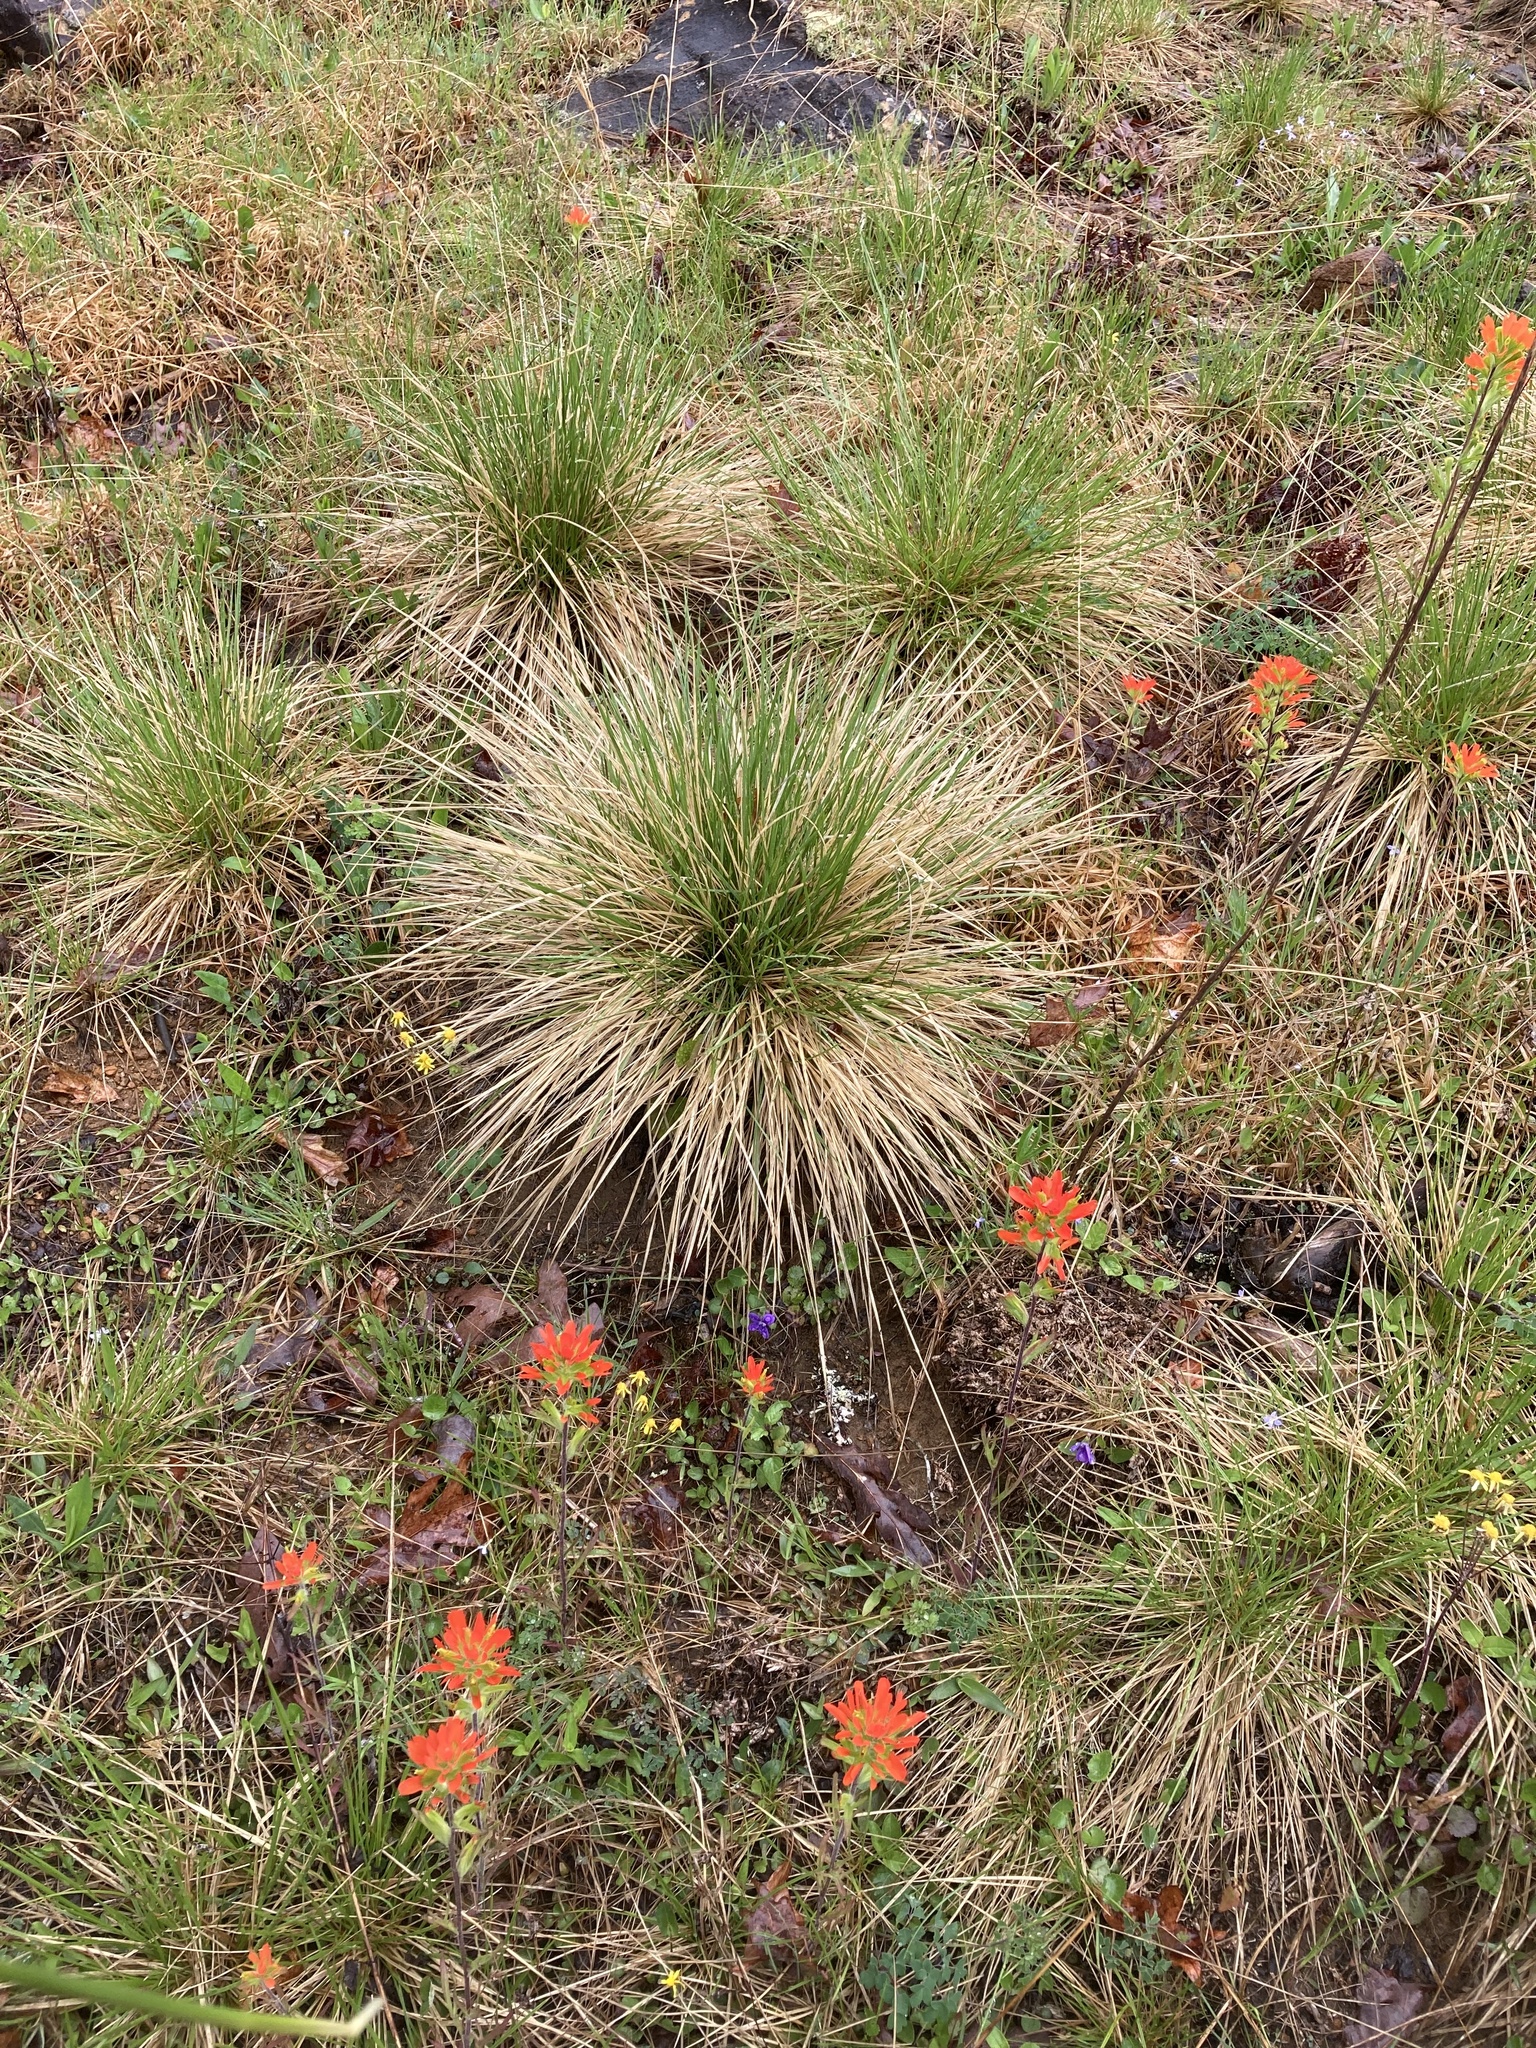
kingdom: Plantae
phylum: Tracheophyta
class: Liliopsida
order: Poales
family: Poaceae
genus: Sporobolus
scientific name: Sporobolus heterolepis
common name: Prairie dropseed
